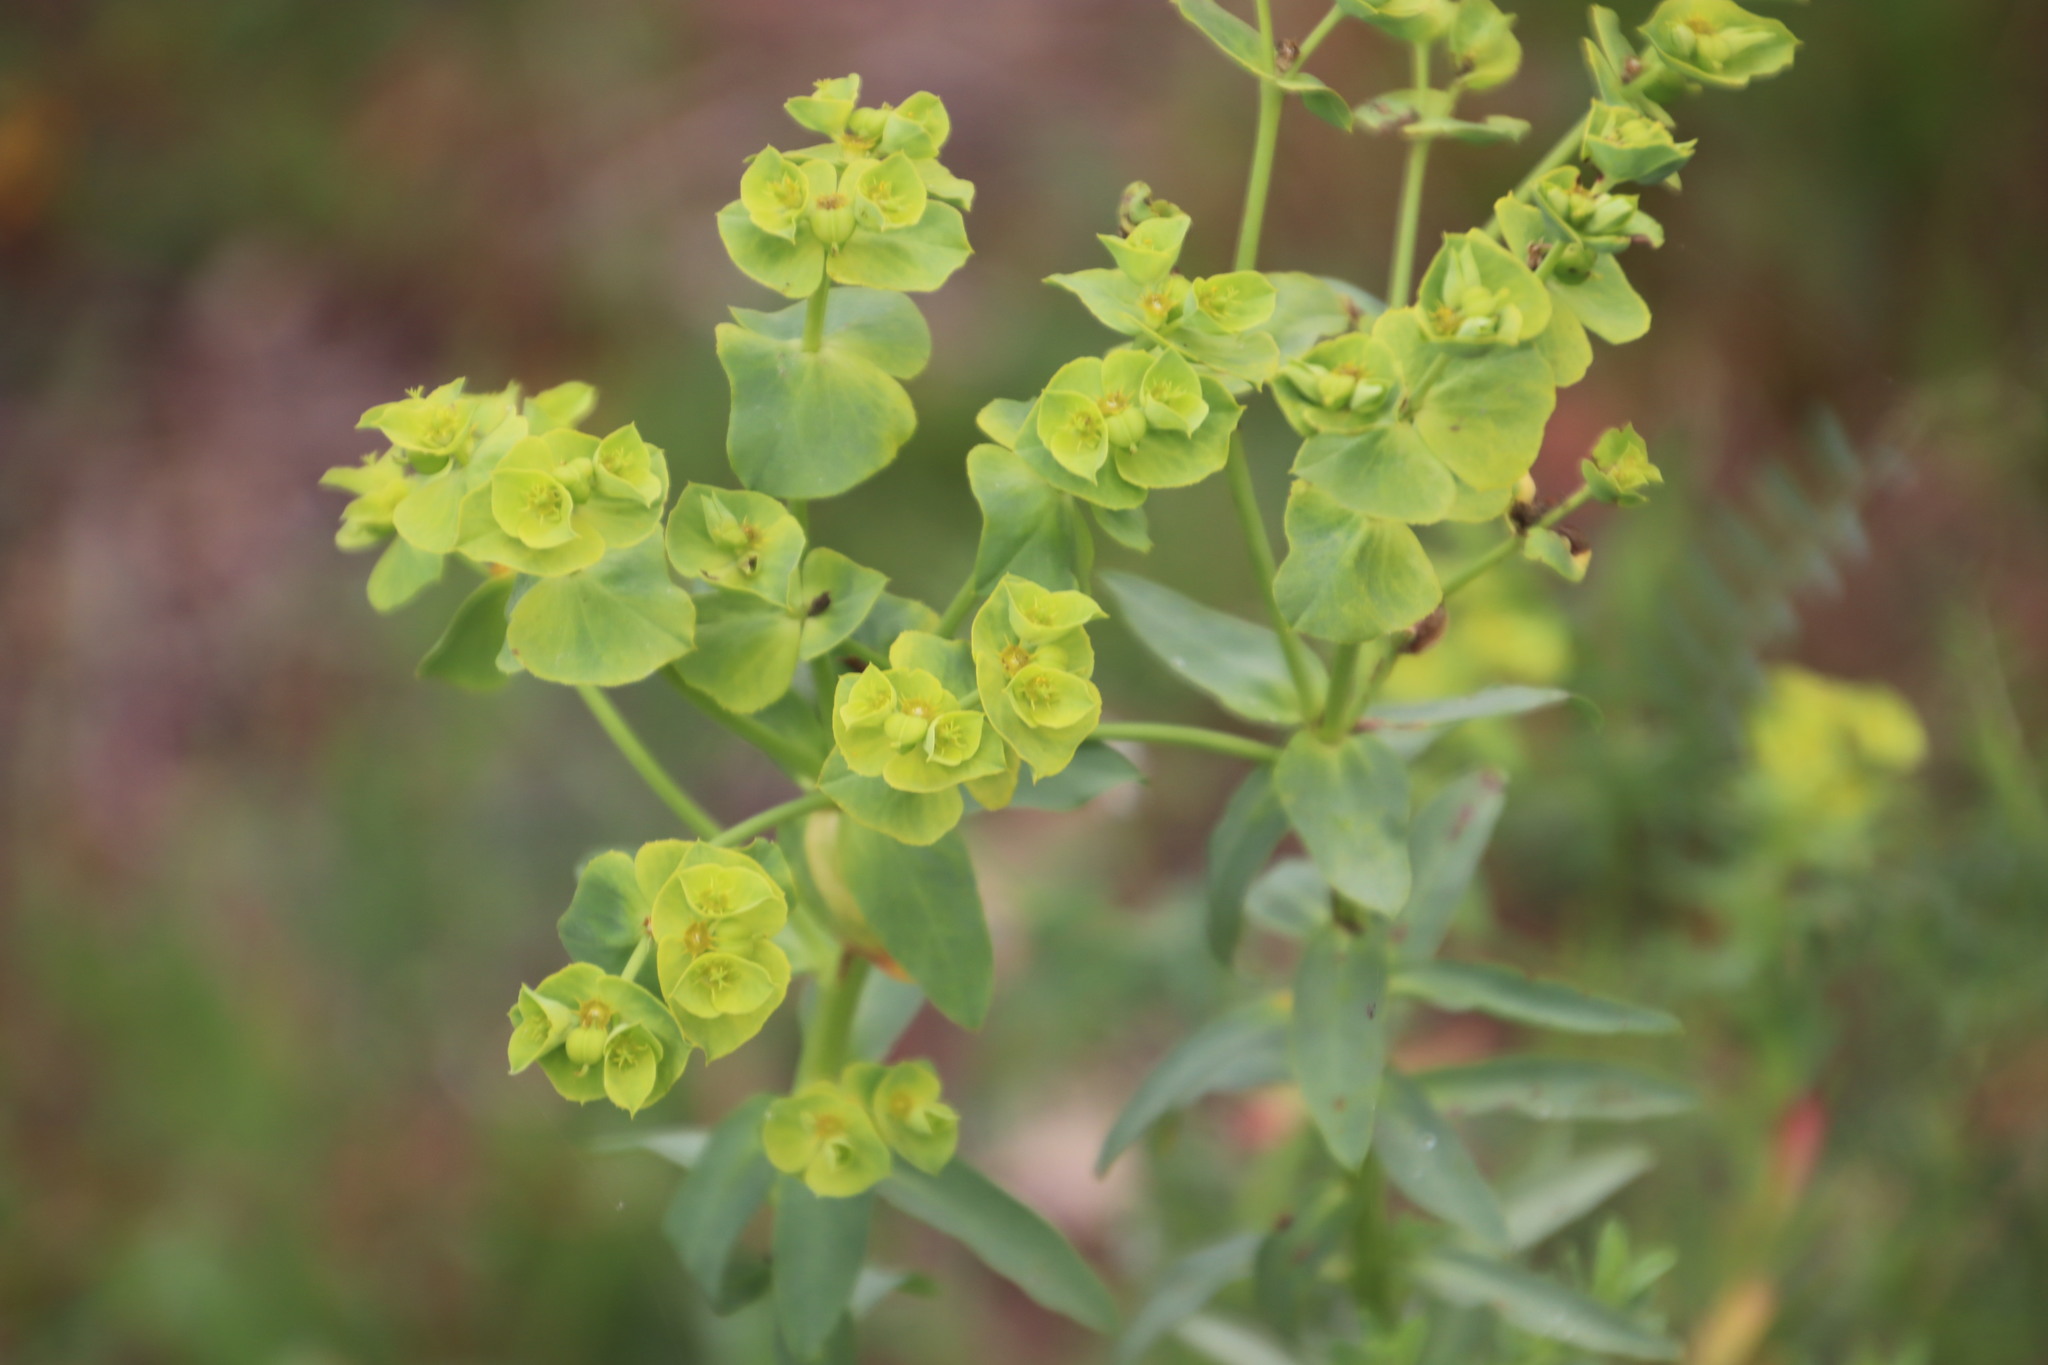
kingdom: Plantae
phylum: Tracheophyta
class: Magnoliopsida
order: Malpighiales
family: Euphorbiaceae
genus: Euphorbia
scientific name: Euphorbia terracina
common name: Geraldton carnation weed
